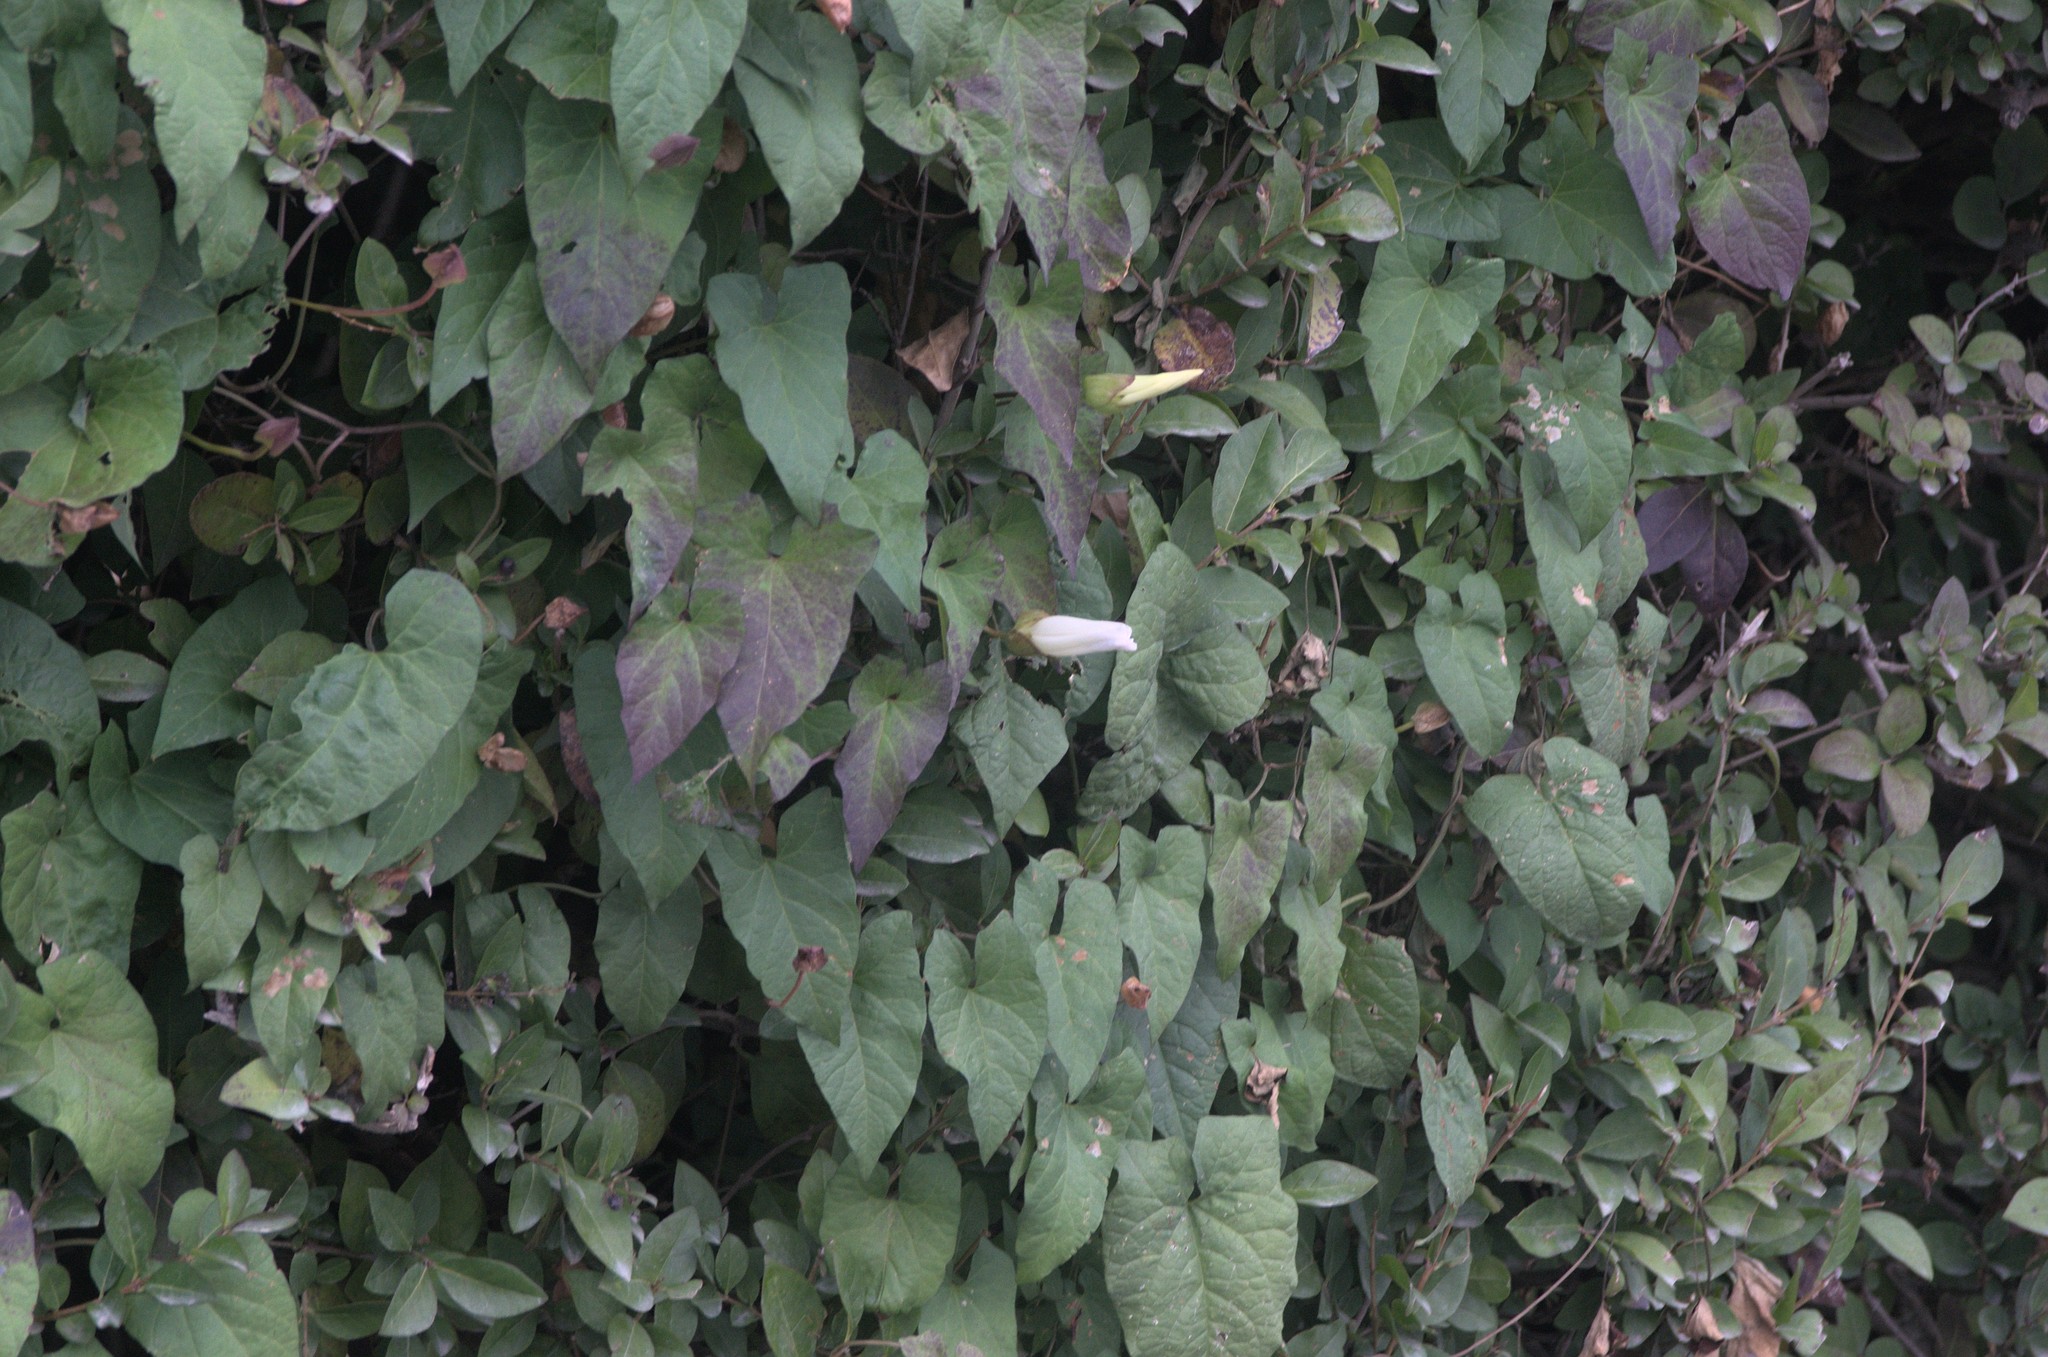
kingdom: Plantae
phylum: Tracheophyta
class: Magnoliopsida
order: Solanales
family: Convolvulaceae
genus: Calystegia
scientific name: Calystegia silvatica
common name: Large bindweed
